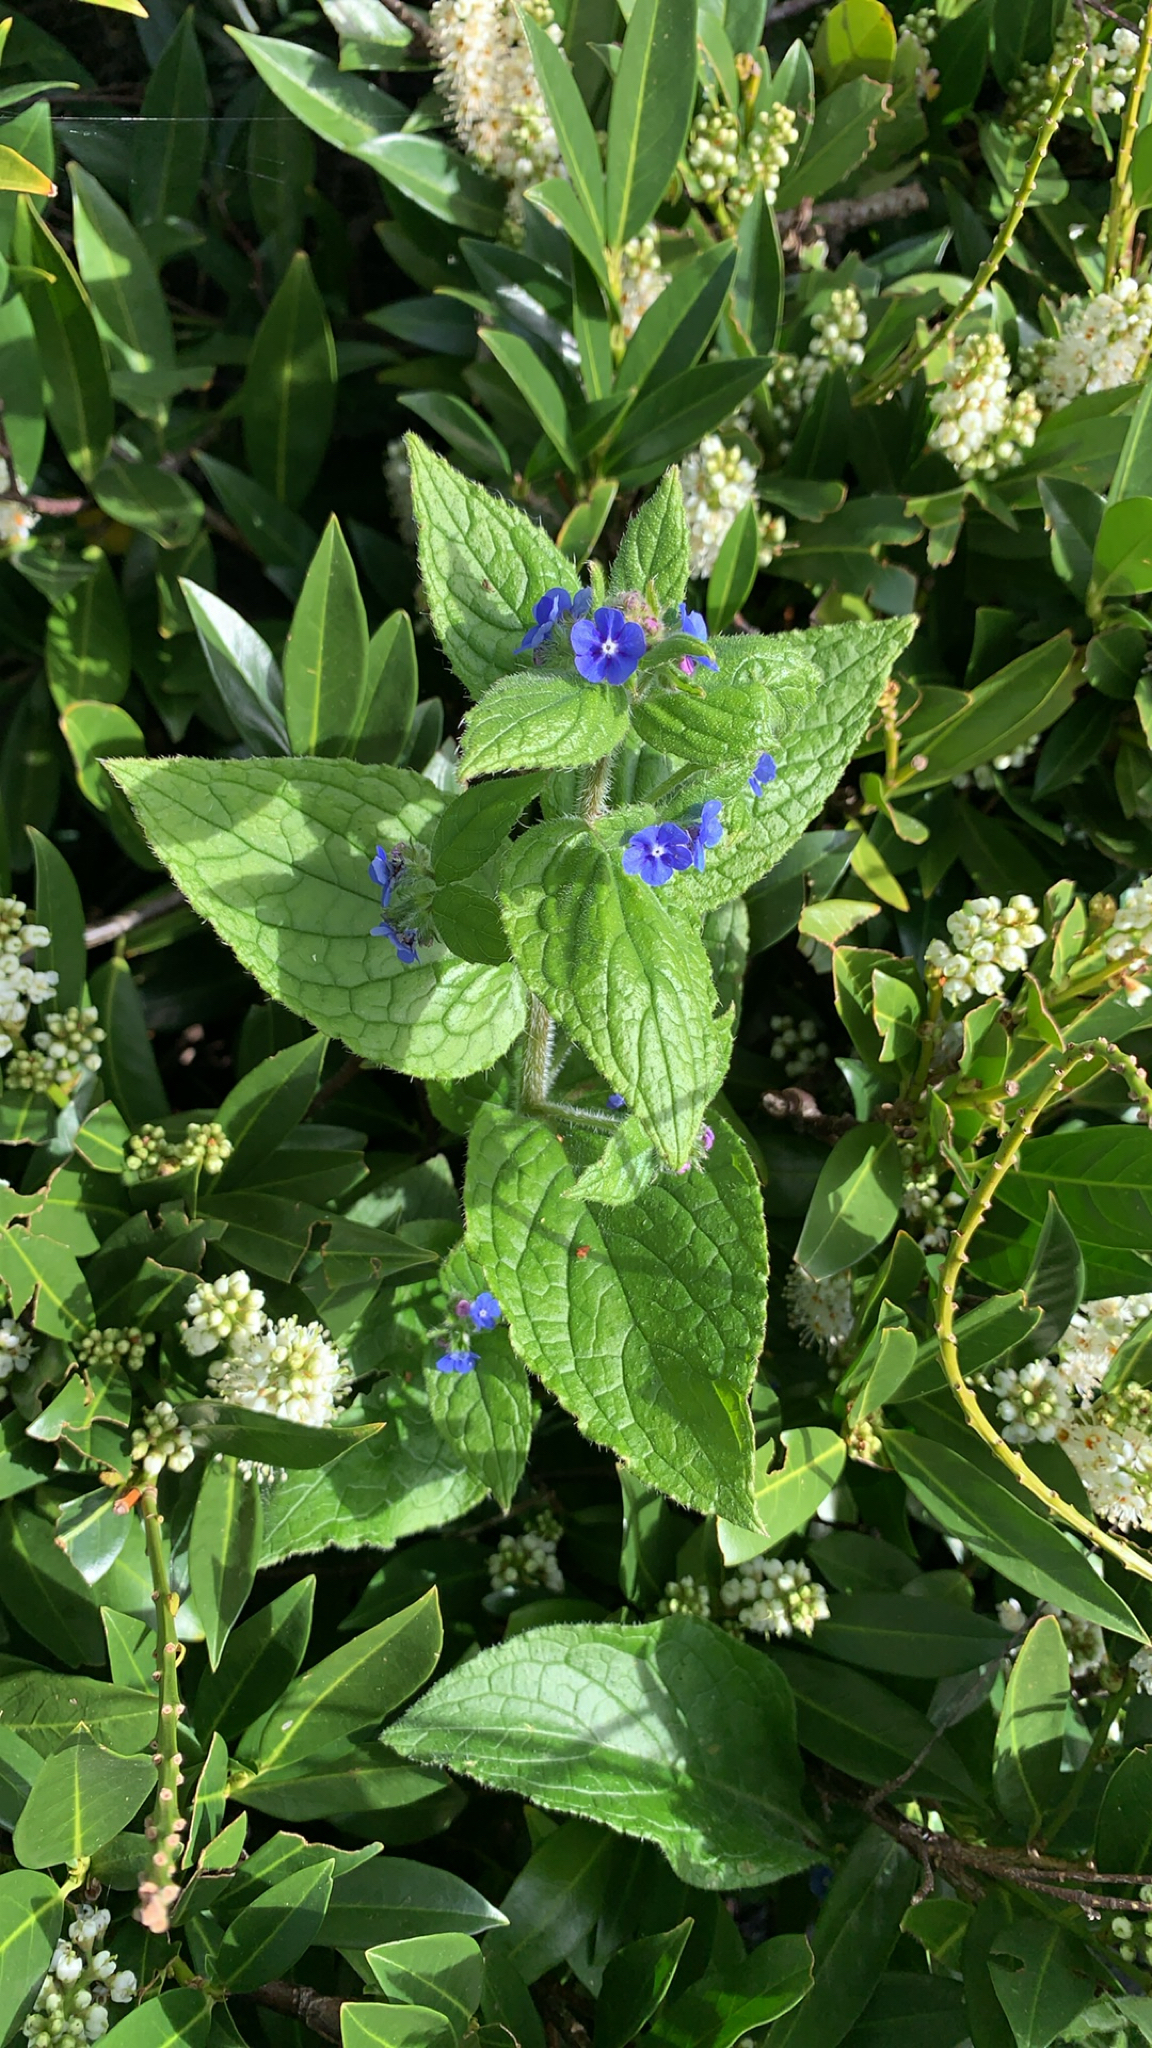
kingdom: Plantae
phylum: Tracheophyta
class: Magnoliopsida
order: Boraginales
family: Boraginaceae
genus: Pentaglottis
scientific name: Pentaglottis sempervirens
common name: Green alkanet
